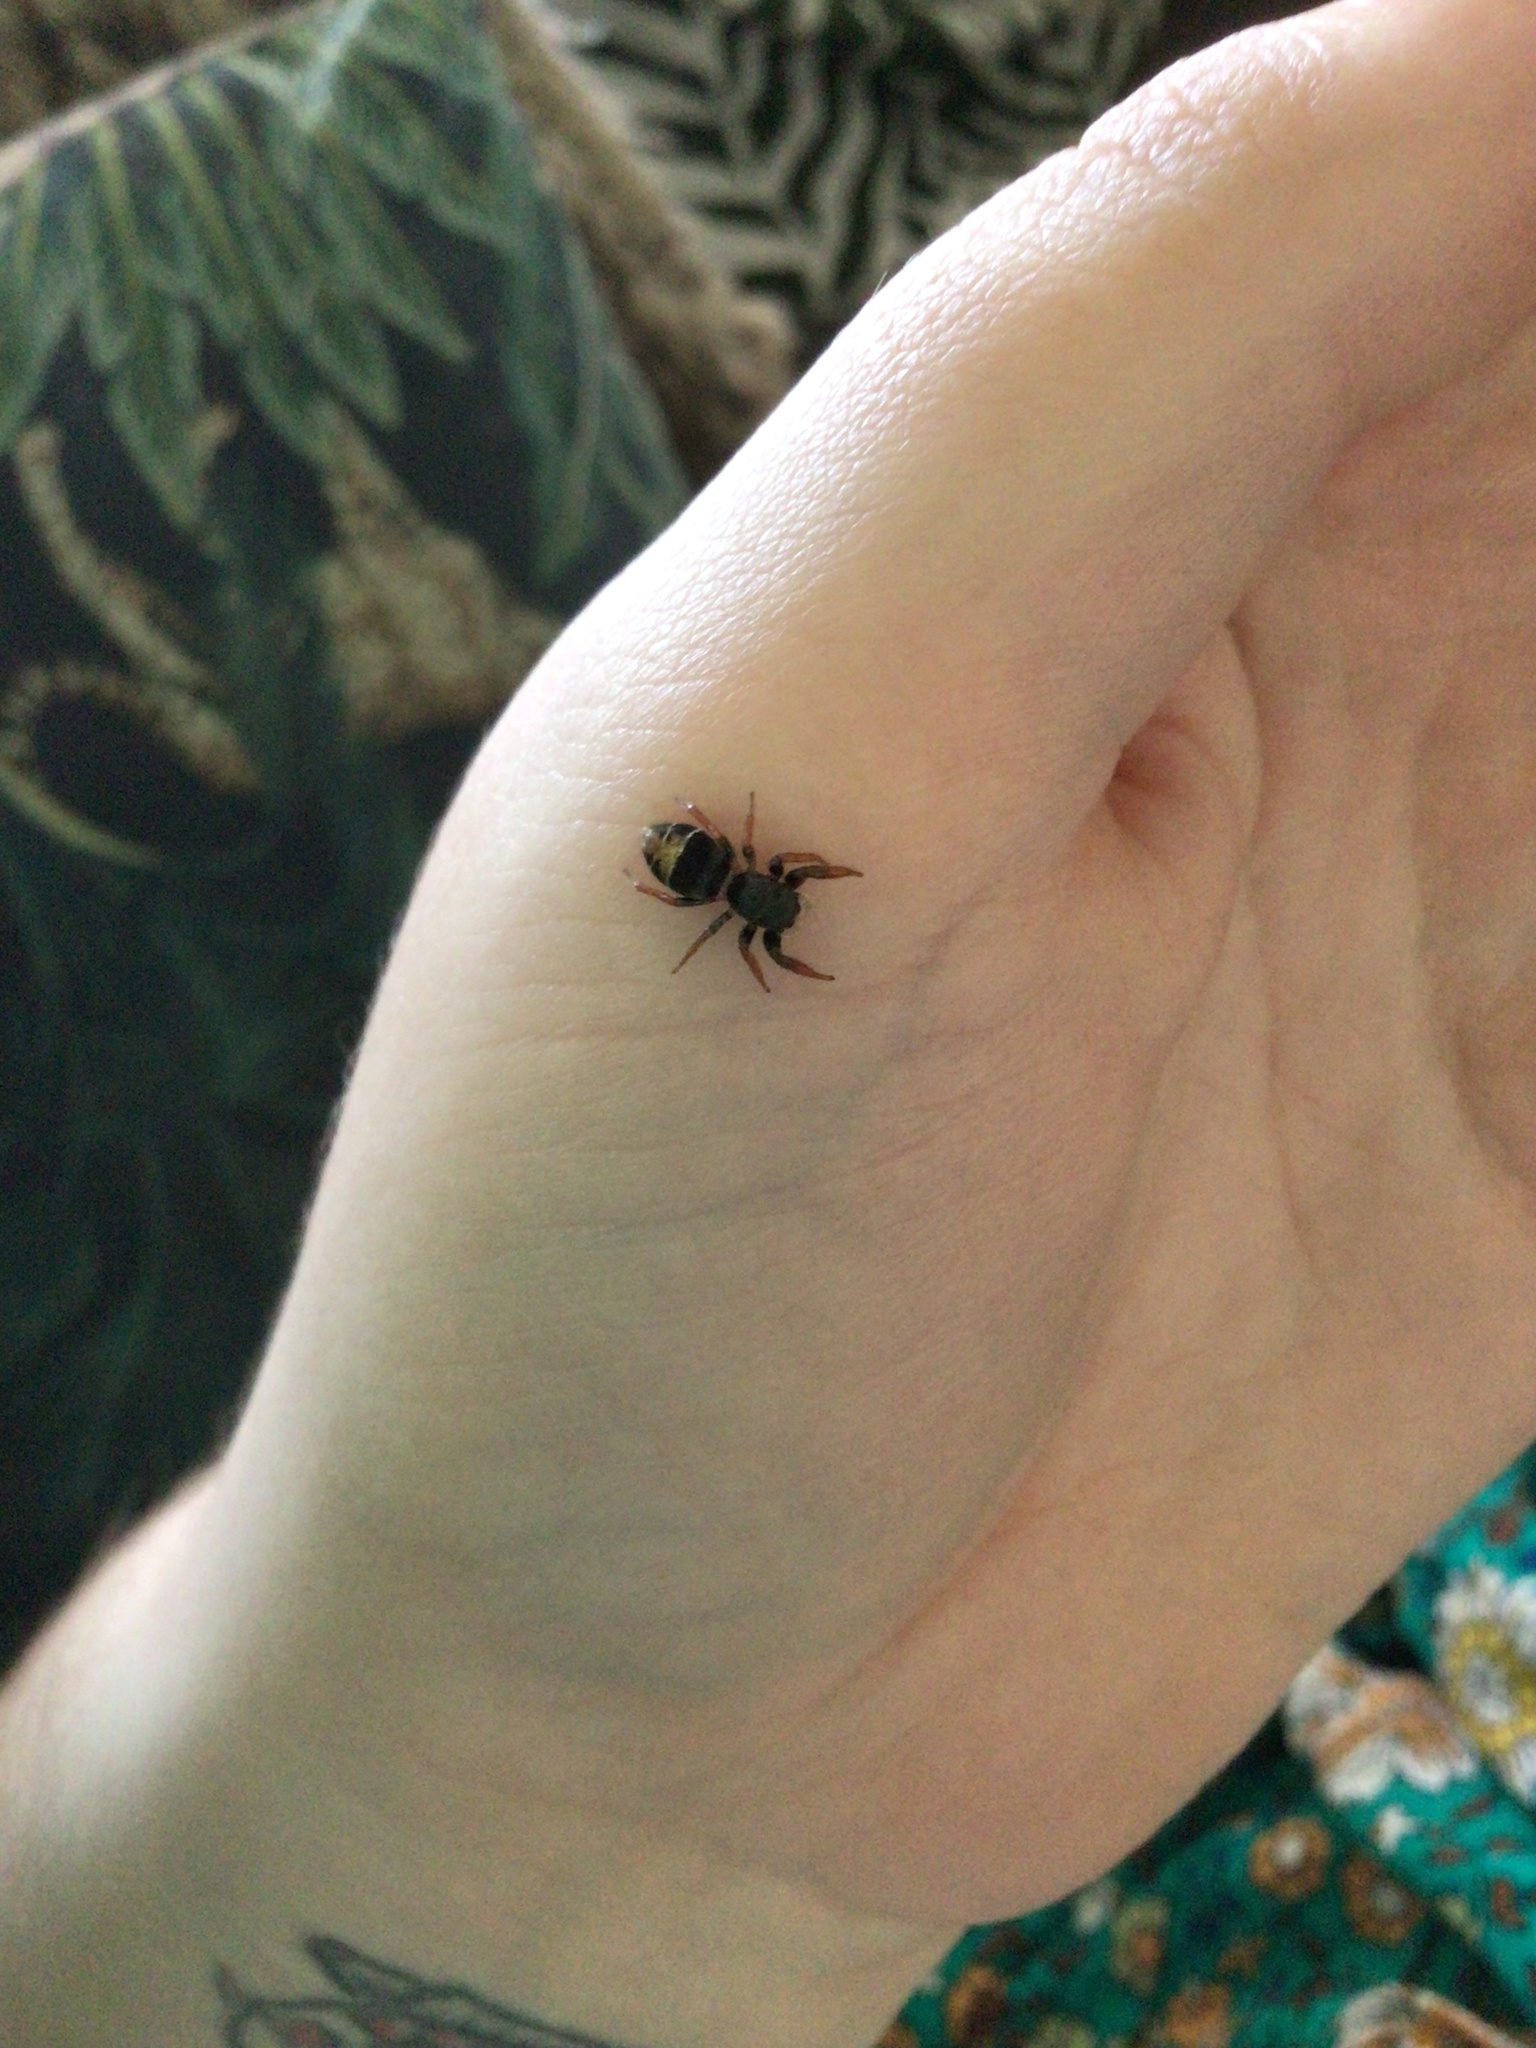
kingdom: Animalia
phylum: Arthropoda
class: Arachnida
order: Araneae
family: Salticidae
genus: Apricia
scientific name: Apricia jovialis
